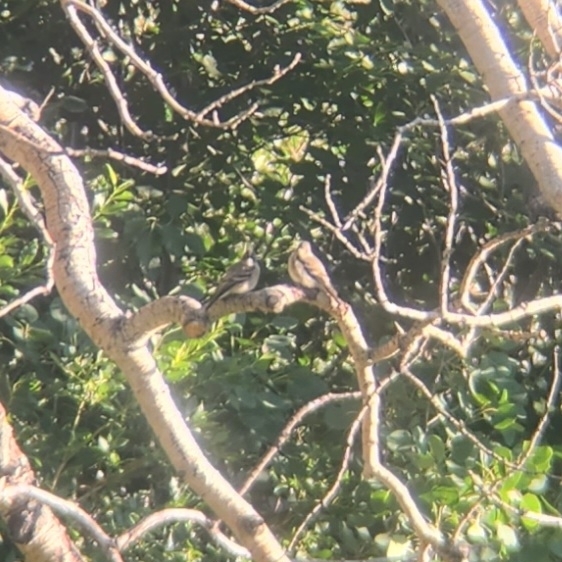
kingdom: Animalia
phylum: Chordata
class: Aves
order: Passeriformes
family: Tyrannidae
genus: Contopus
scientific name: Contopus sordidulus
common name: Western wood-pewee
